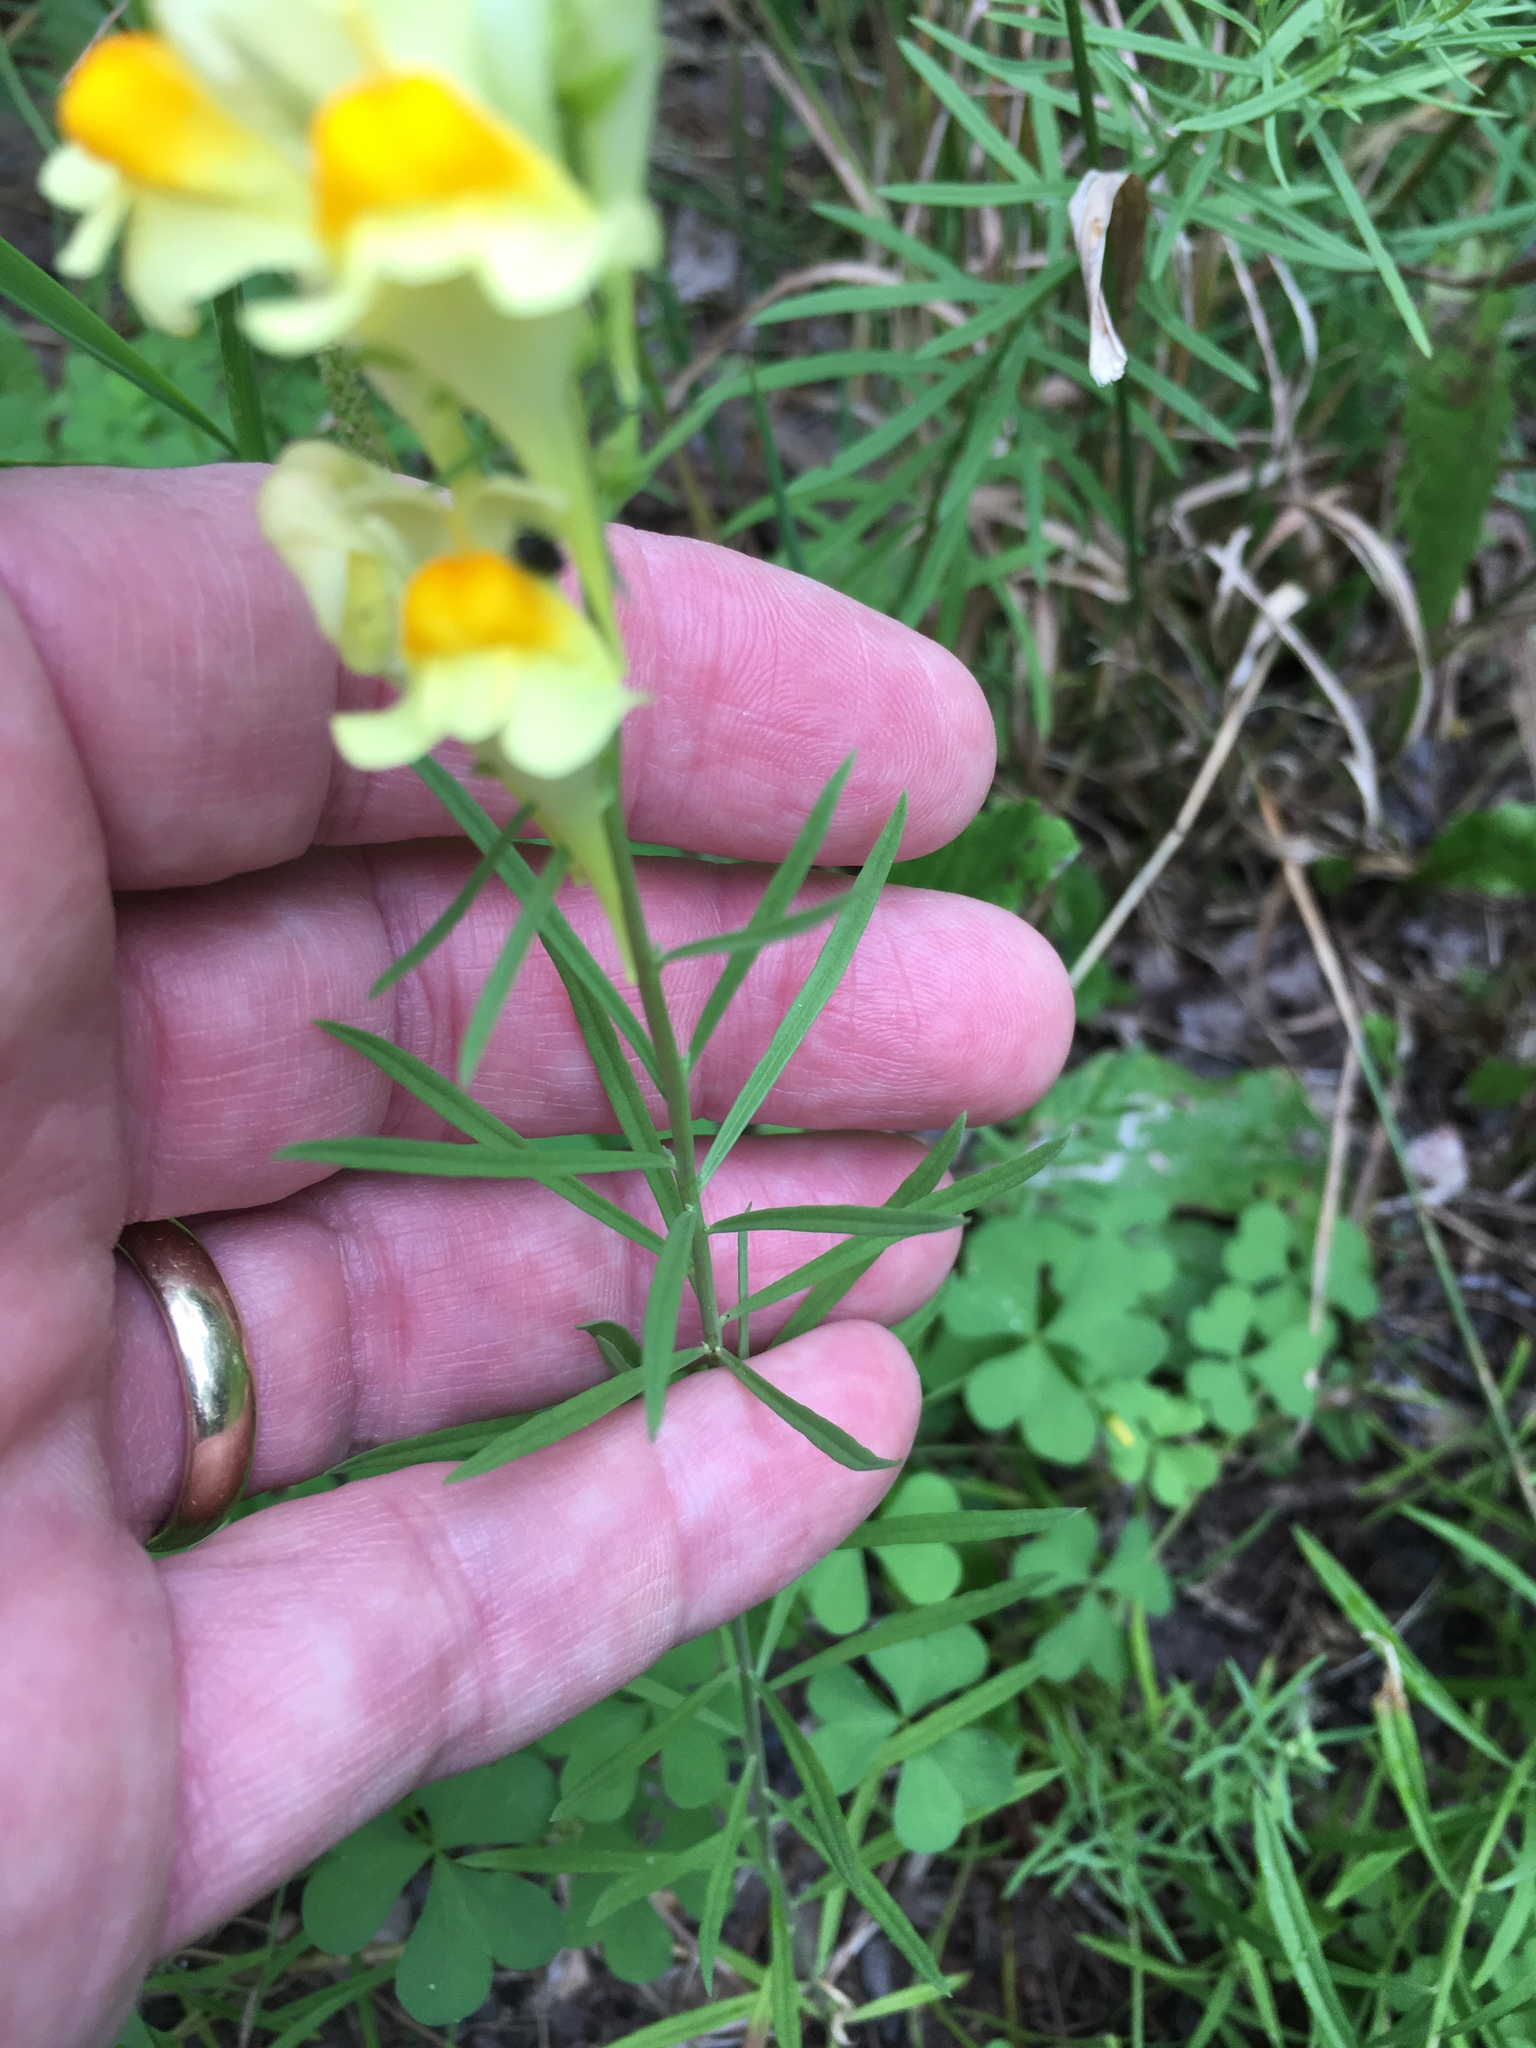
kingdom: Plantae
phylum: Tracheophyta
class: Magnoliopsida
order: Lamiales
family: Plantaginaceae
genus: Linaria
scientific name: Linaria vulgaris
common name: Butter and eggs
